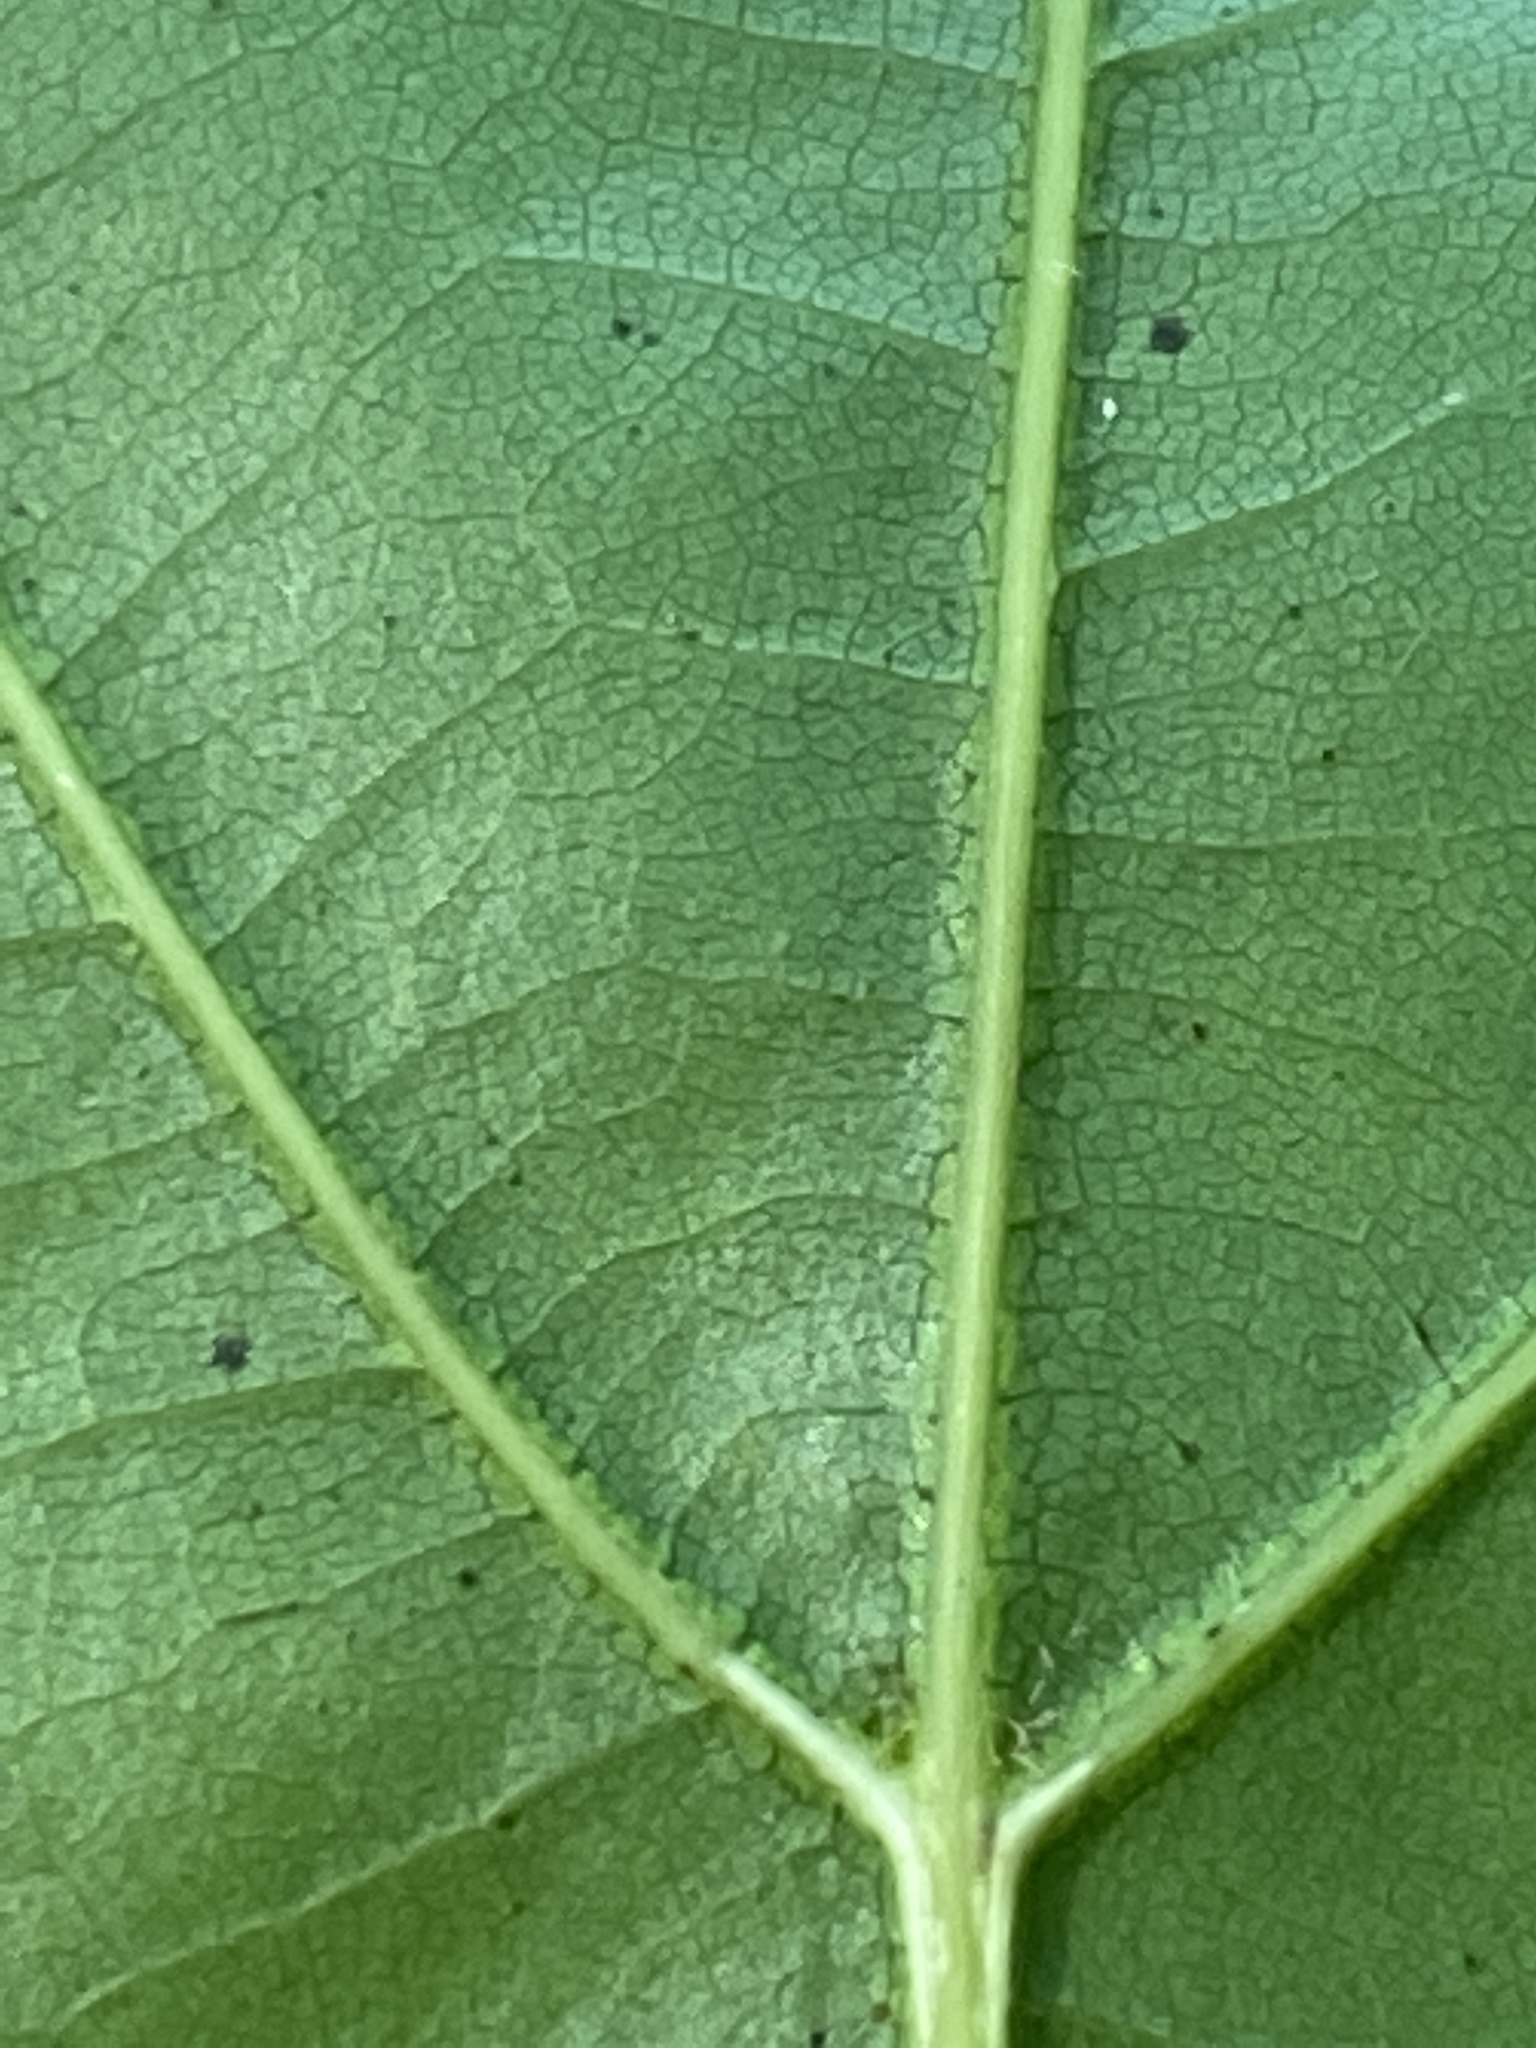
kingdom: Plantae
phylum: Tracheophyta
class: Magnoliopsida
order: Fagales
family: Fagaceae
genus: Quercus
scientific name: Quercus rubra
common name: Red oak
